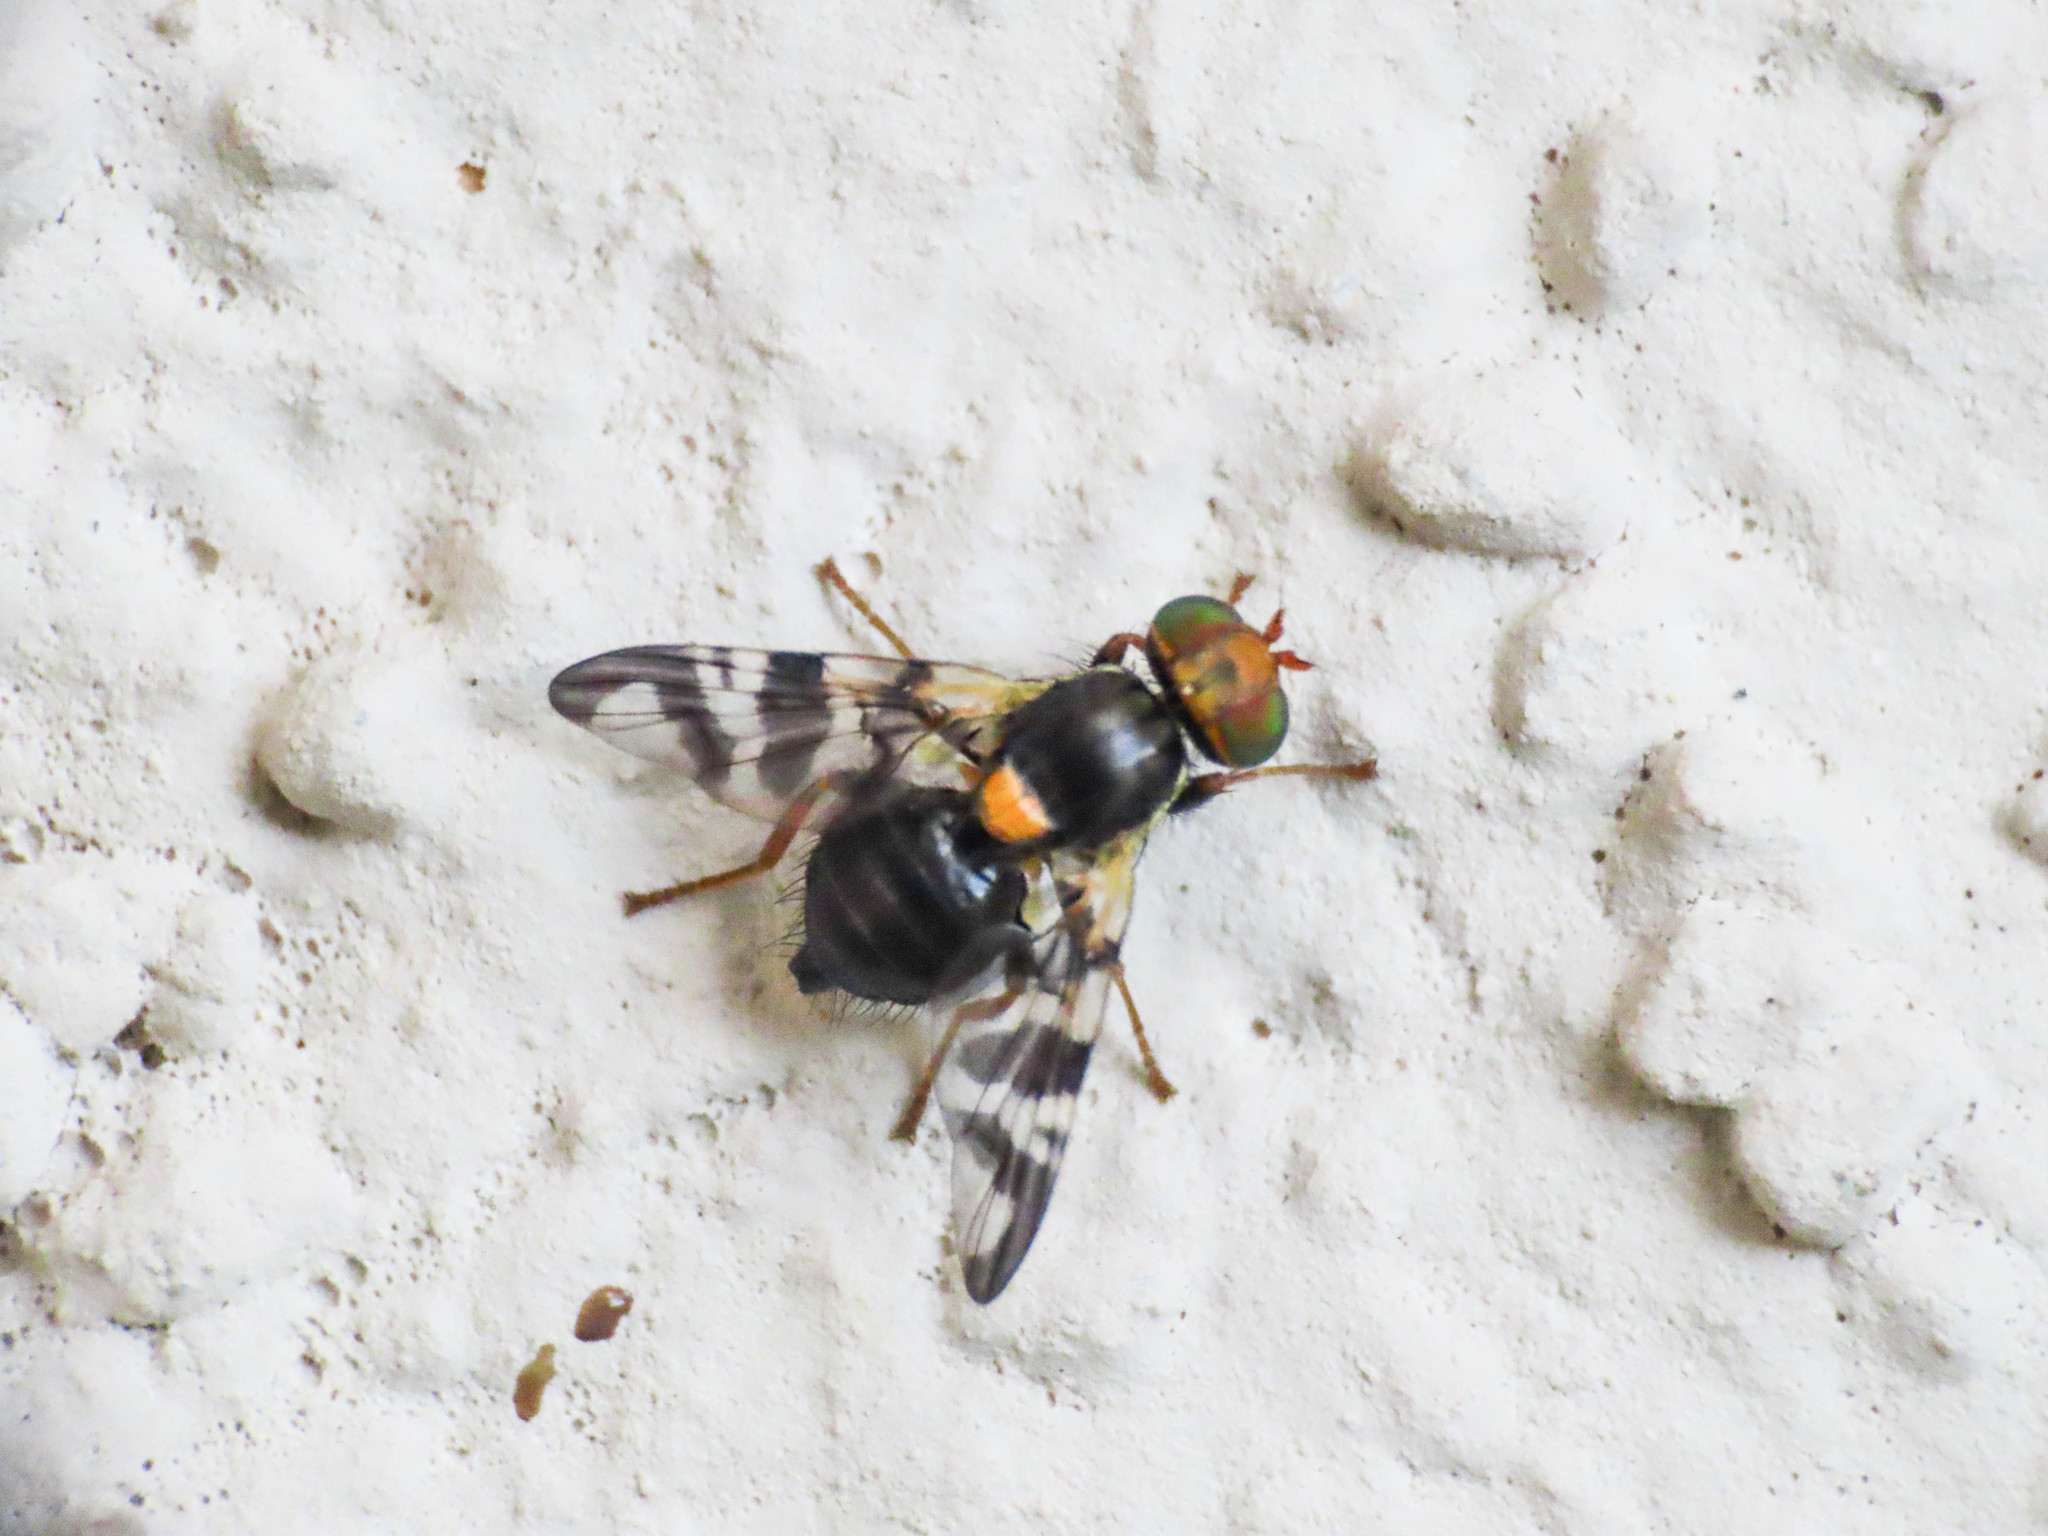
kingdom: Animalia
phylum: Arthropoda
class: Insecta
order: Diptera
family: Tephritidae
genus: Rhagoletis
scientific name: Rhagoletis cerasi
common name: European cherry fruit fly
